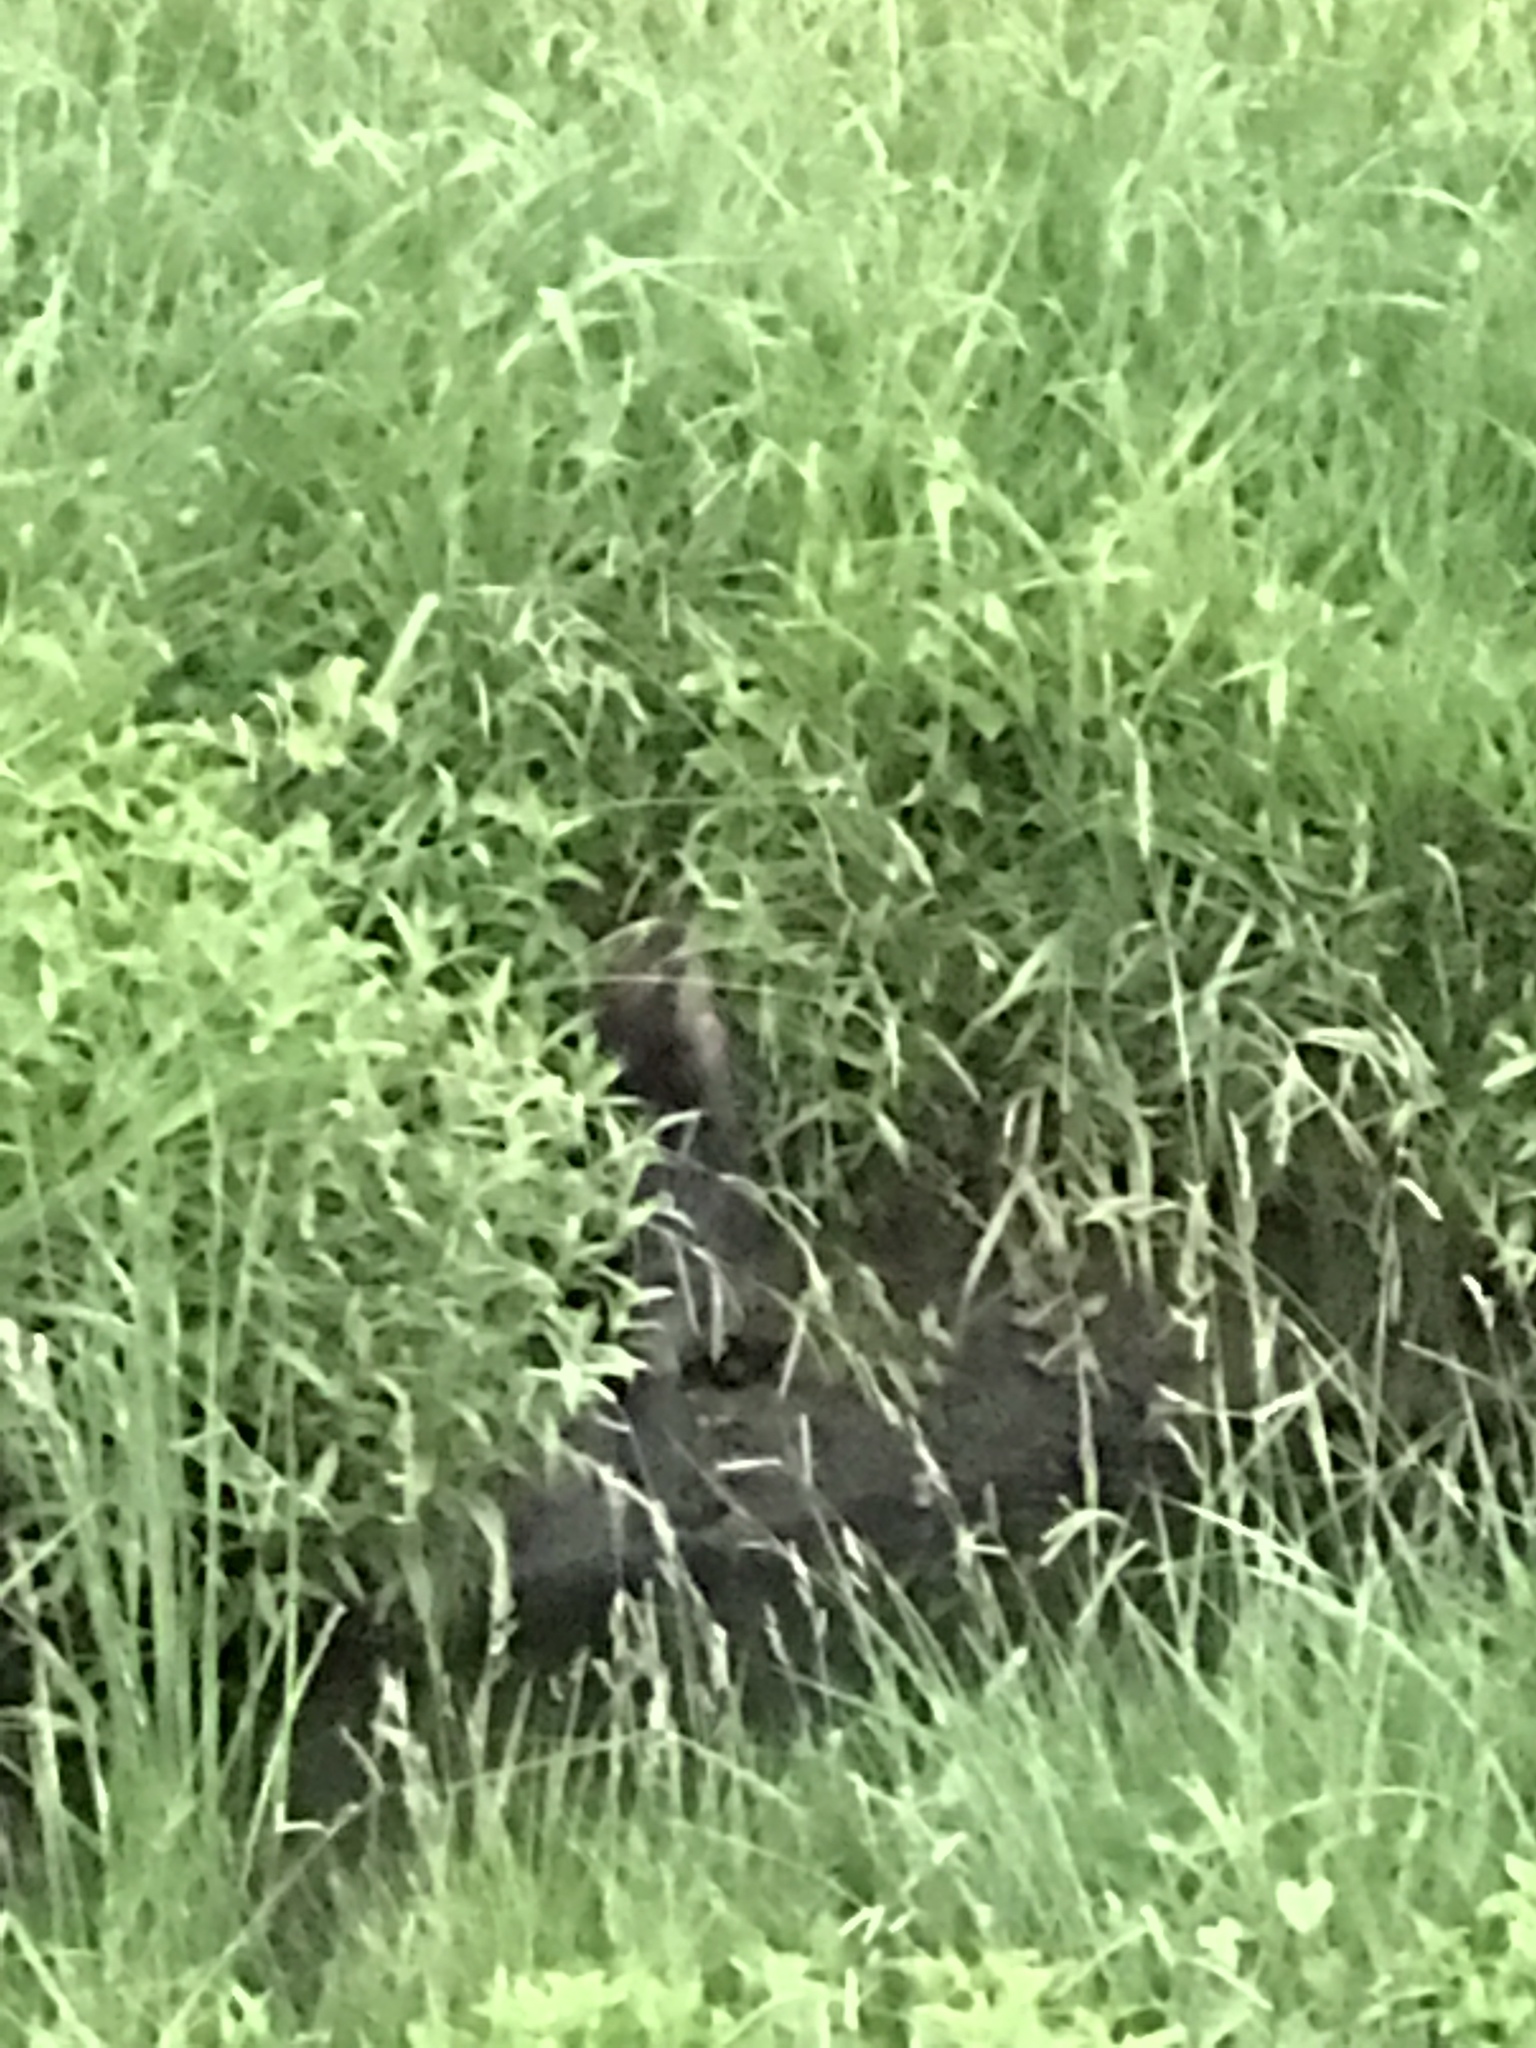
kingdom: Animalia
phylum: Chordata
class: Mammalia
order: Rodentia
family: Castoridae
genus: Castor
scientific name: Castor canadensis
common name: American beaver
